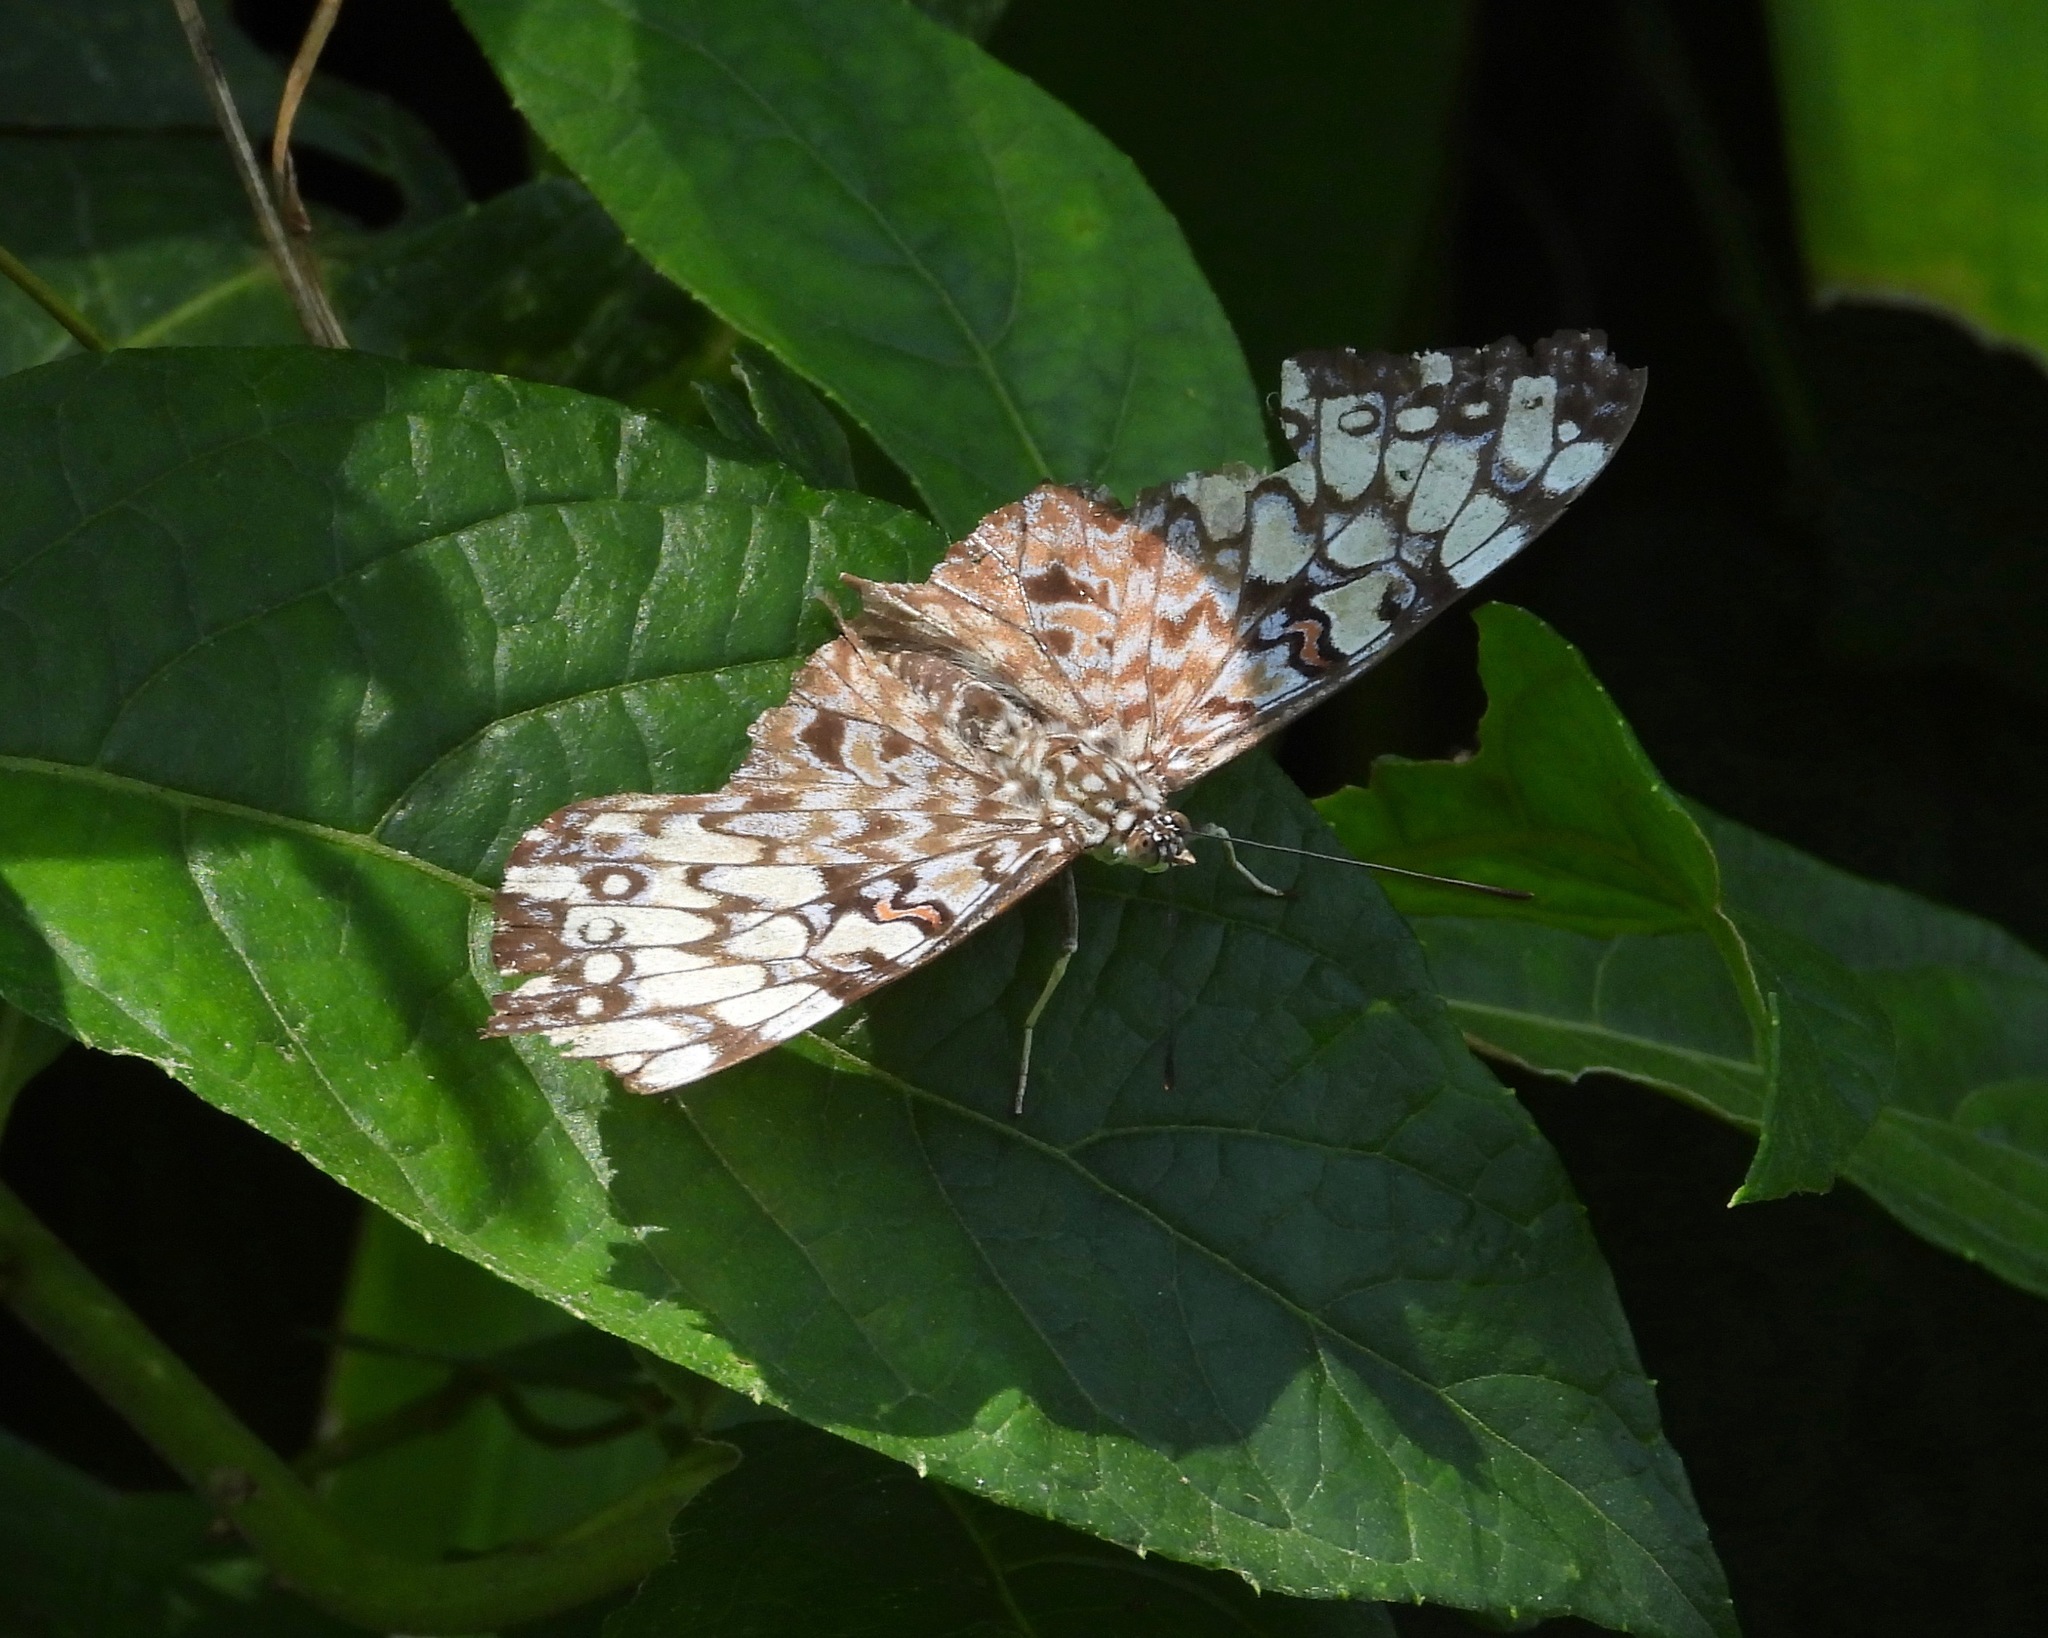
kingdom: Animalia
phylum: Arthropoda
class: Insecta
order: Lepidoptera
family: Nymphalidae
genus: Hamadryas
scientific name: Hamadryas feronia
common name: Variable cracker
